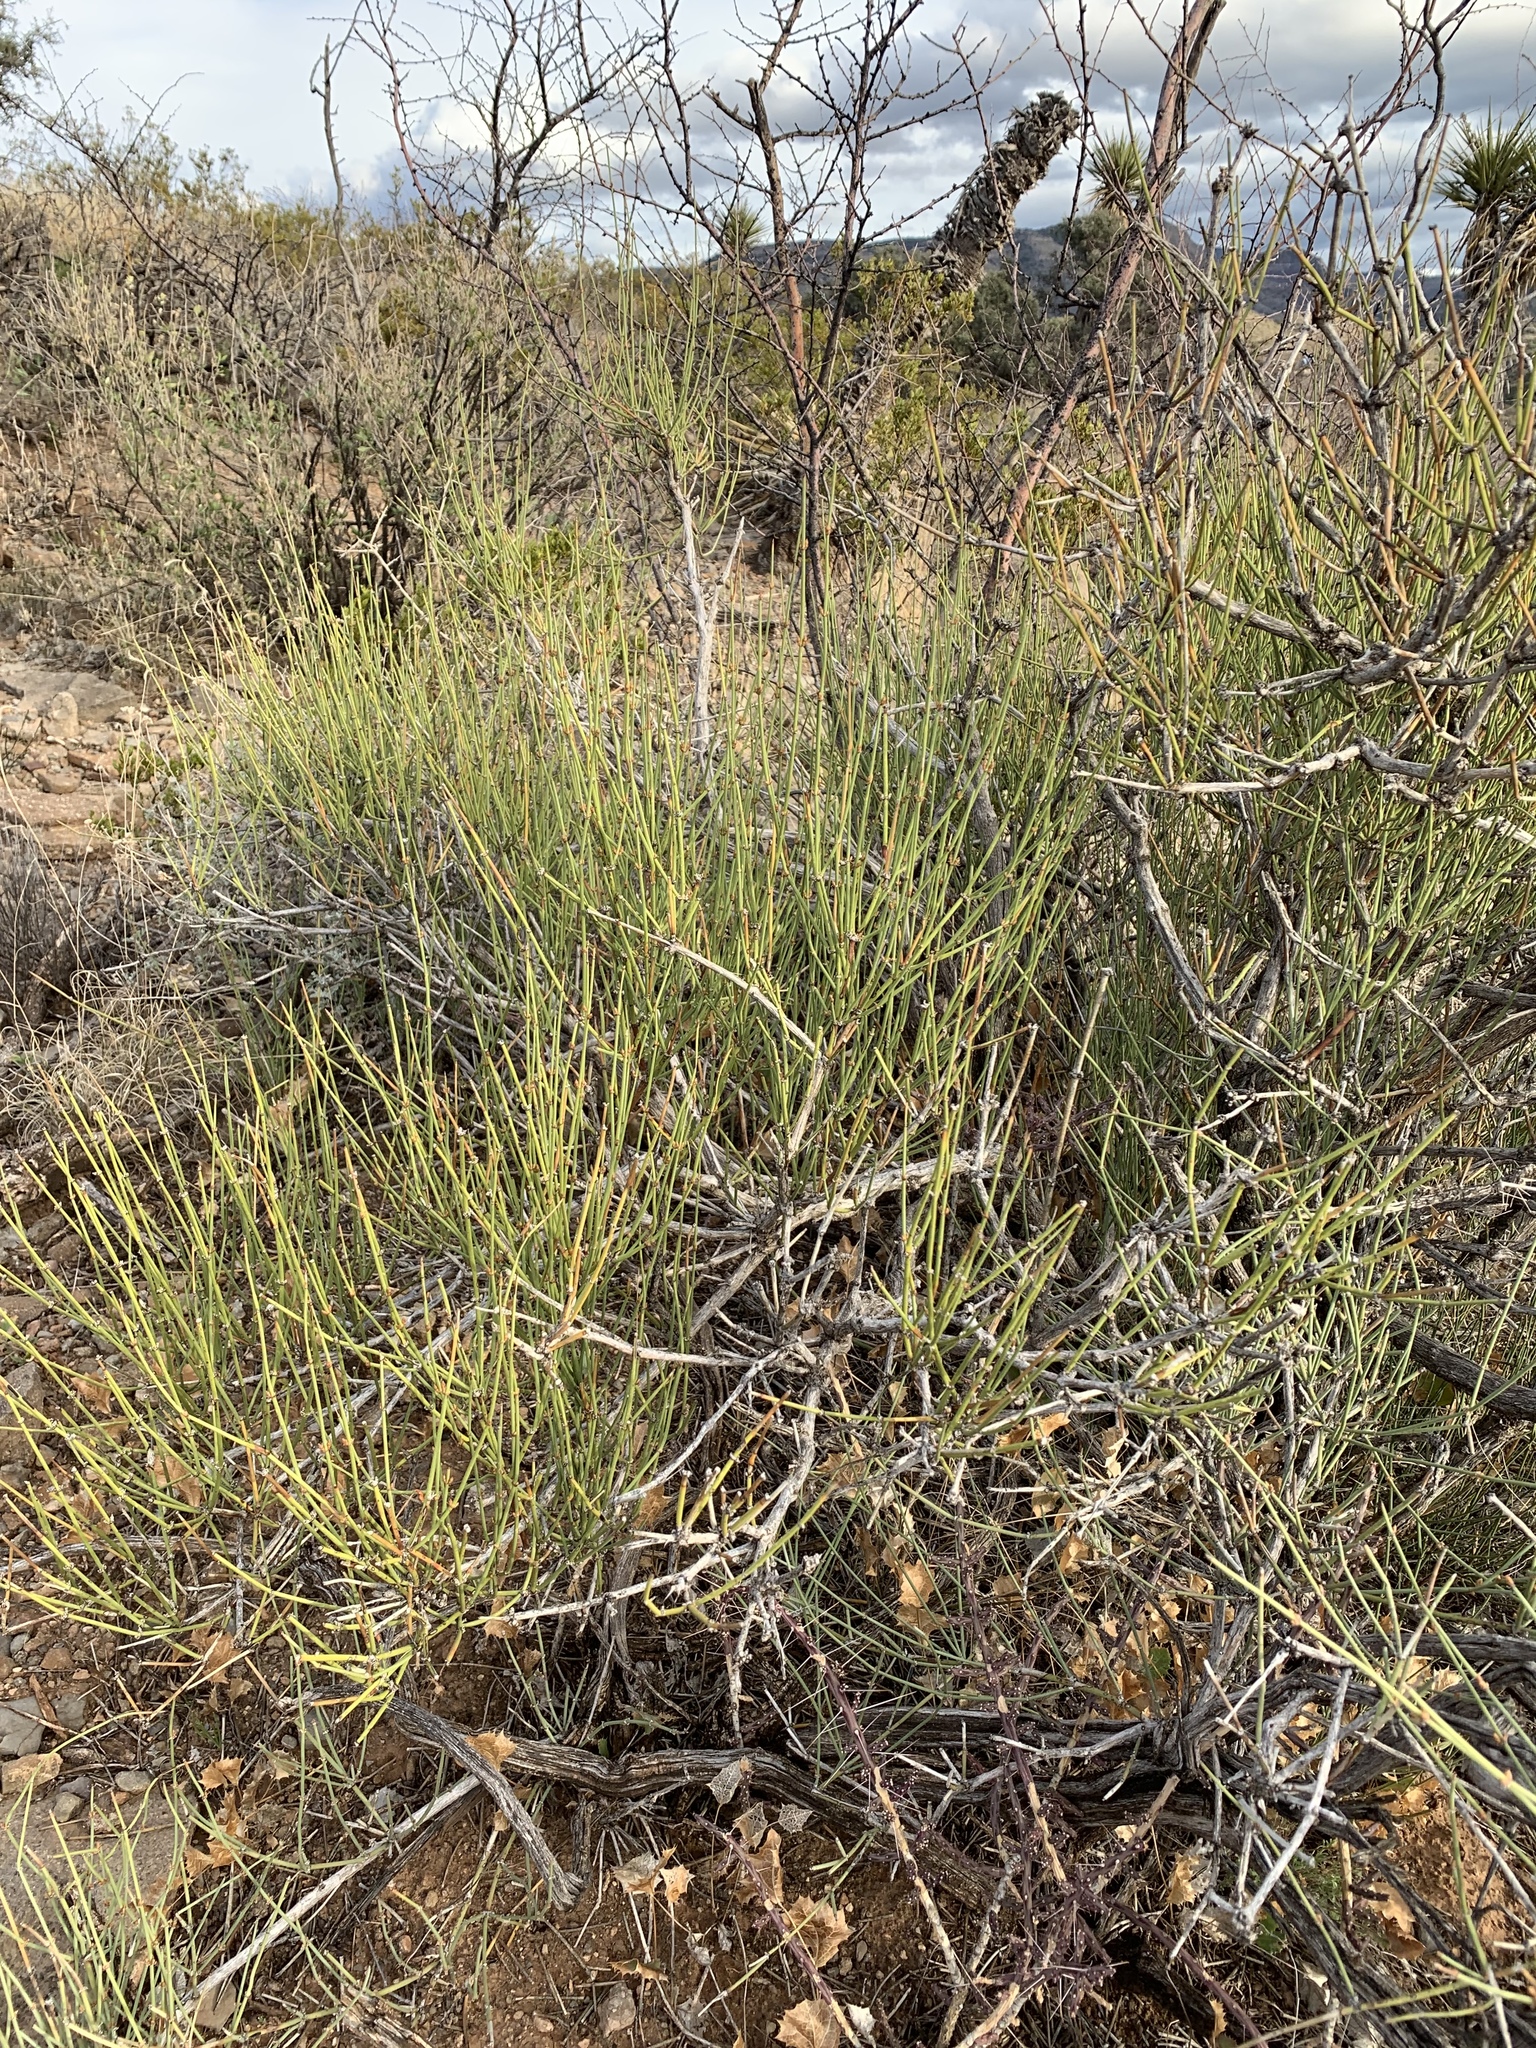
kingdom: Plantae
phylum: Tracheophyta
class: Gnetopsida
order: Ephedrales
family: Ephedraceae
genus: Ephedra
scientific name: Ephedra trifurca
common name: Mexican-tea
